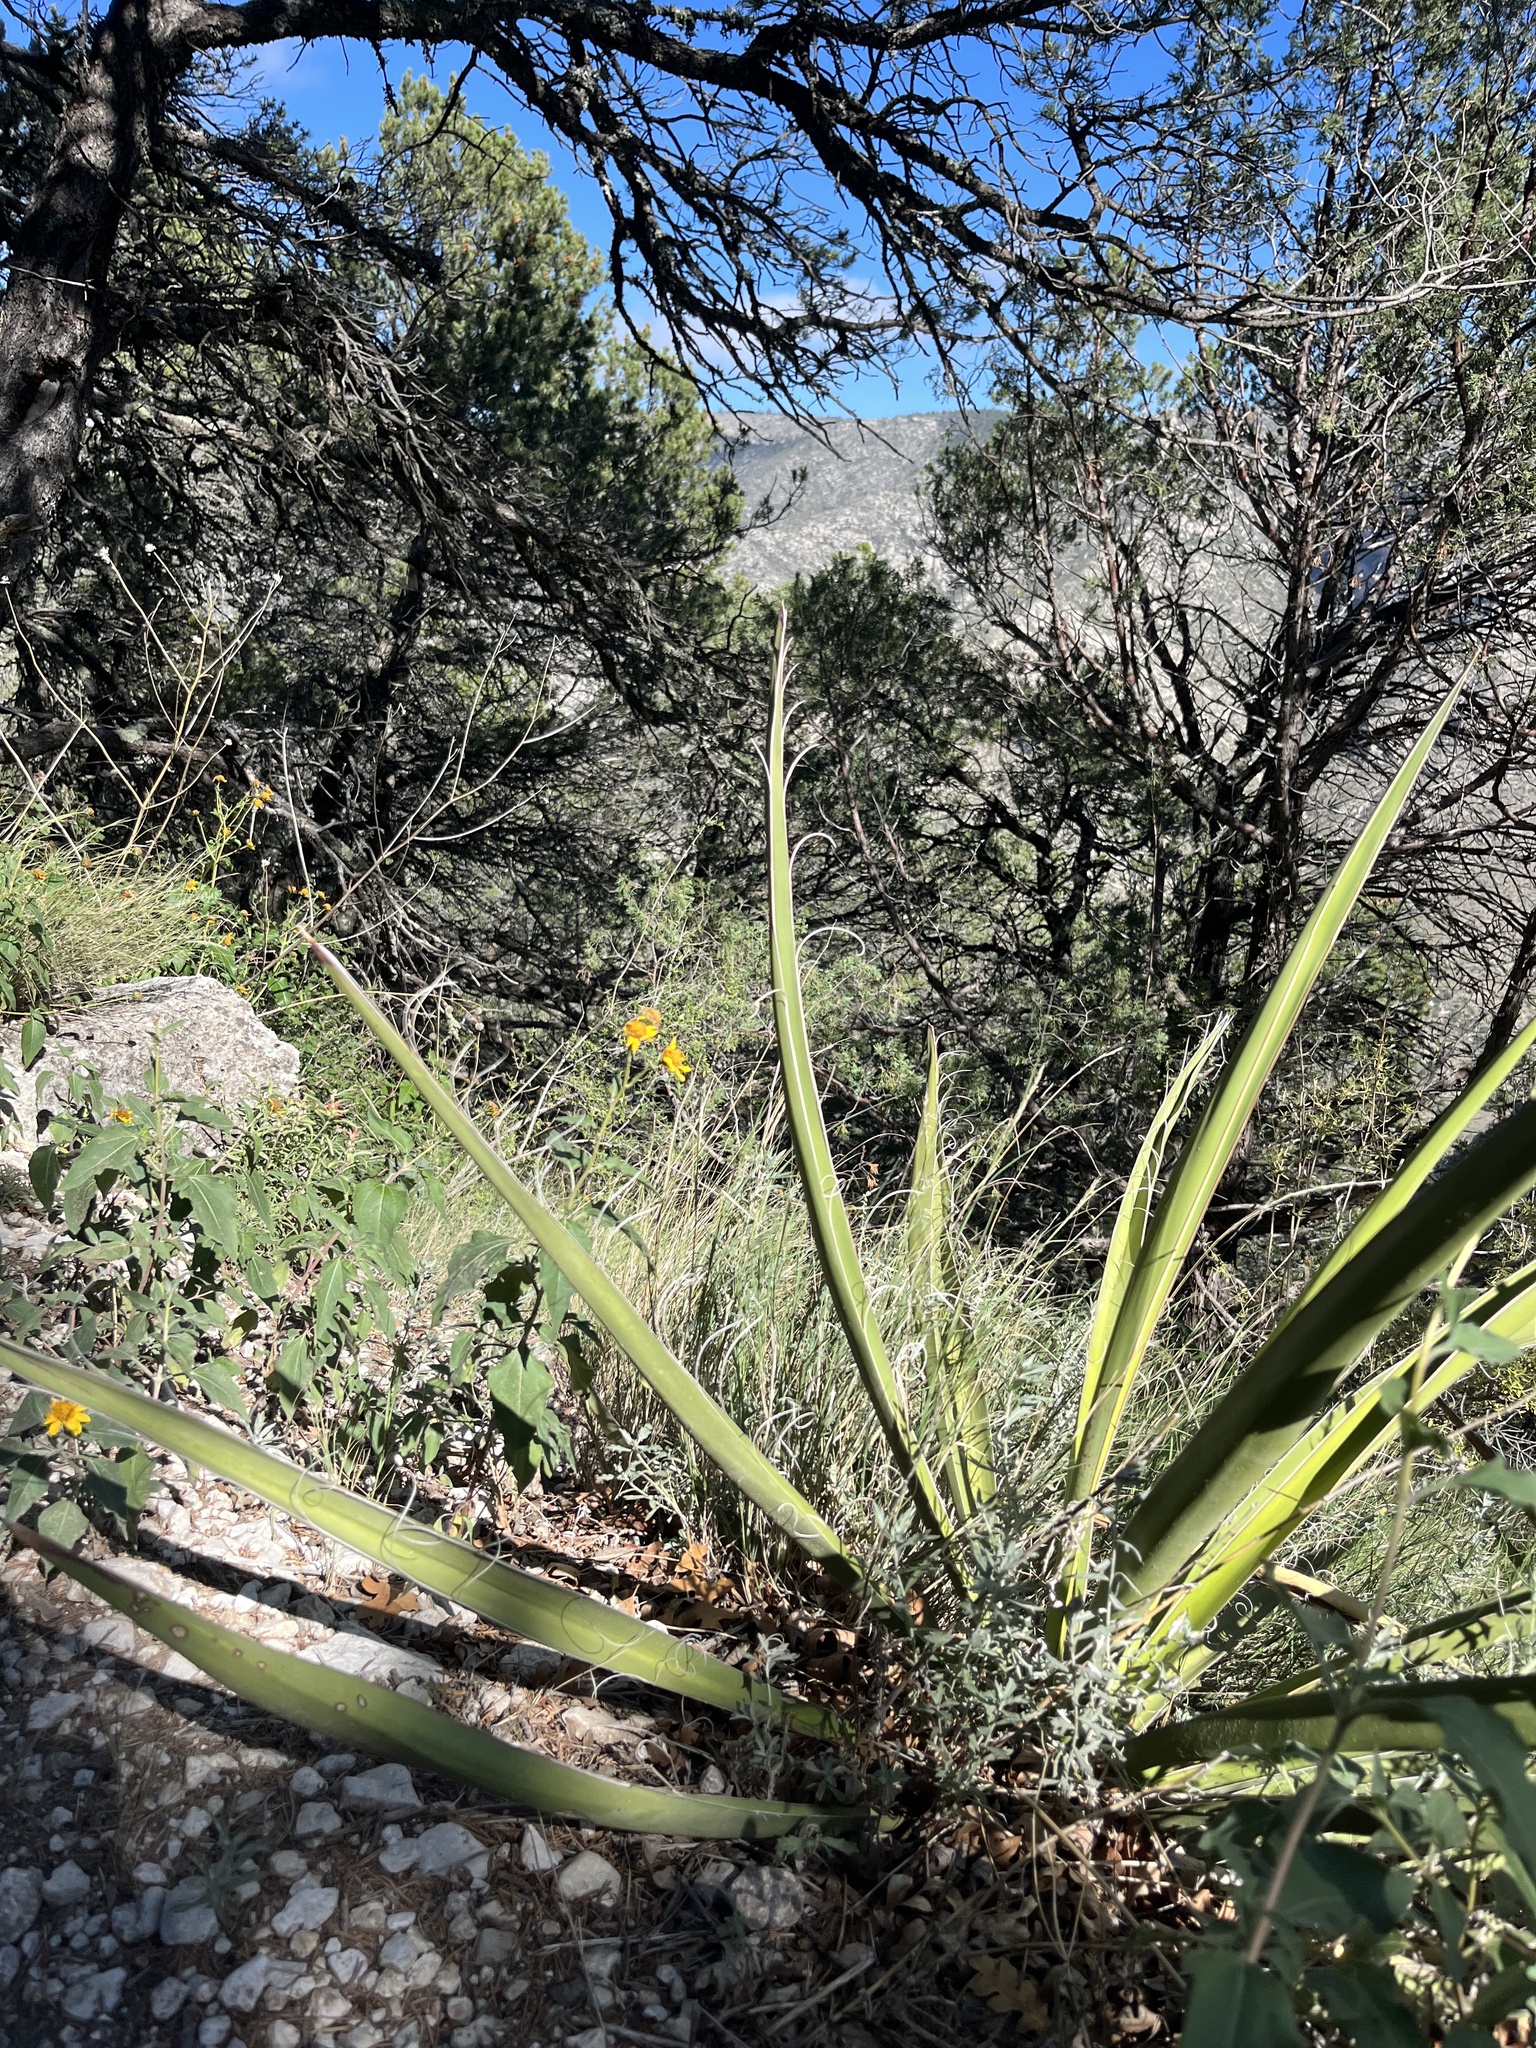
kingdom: Plantae
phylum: Tracheophyta
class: Liliopsida
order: Asparagales
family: Asparagaceae
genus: Yucca
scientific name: Yucca baccata
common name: Banana yucca
